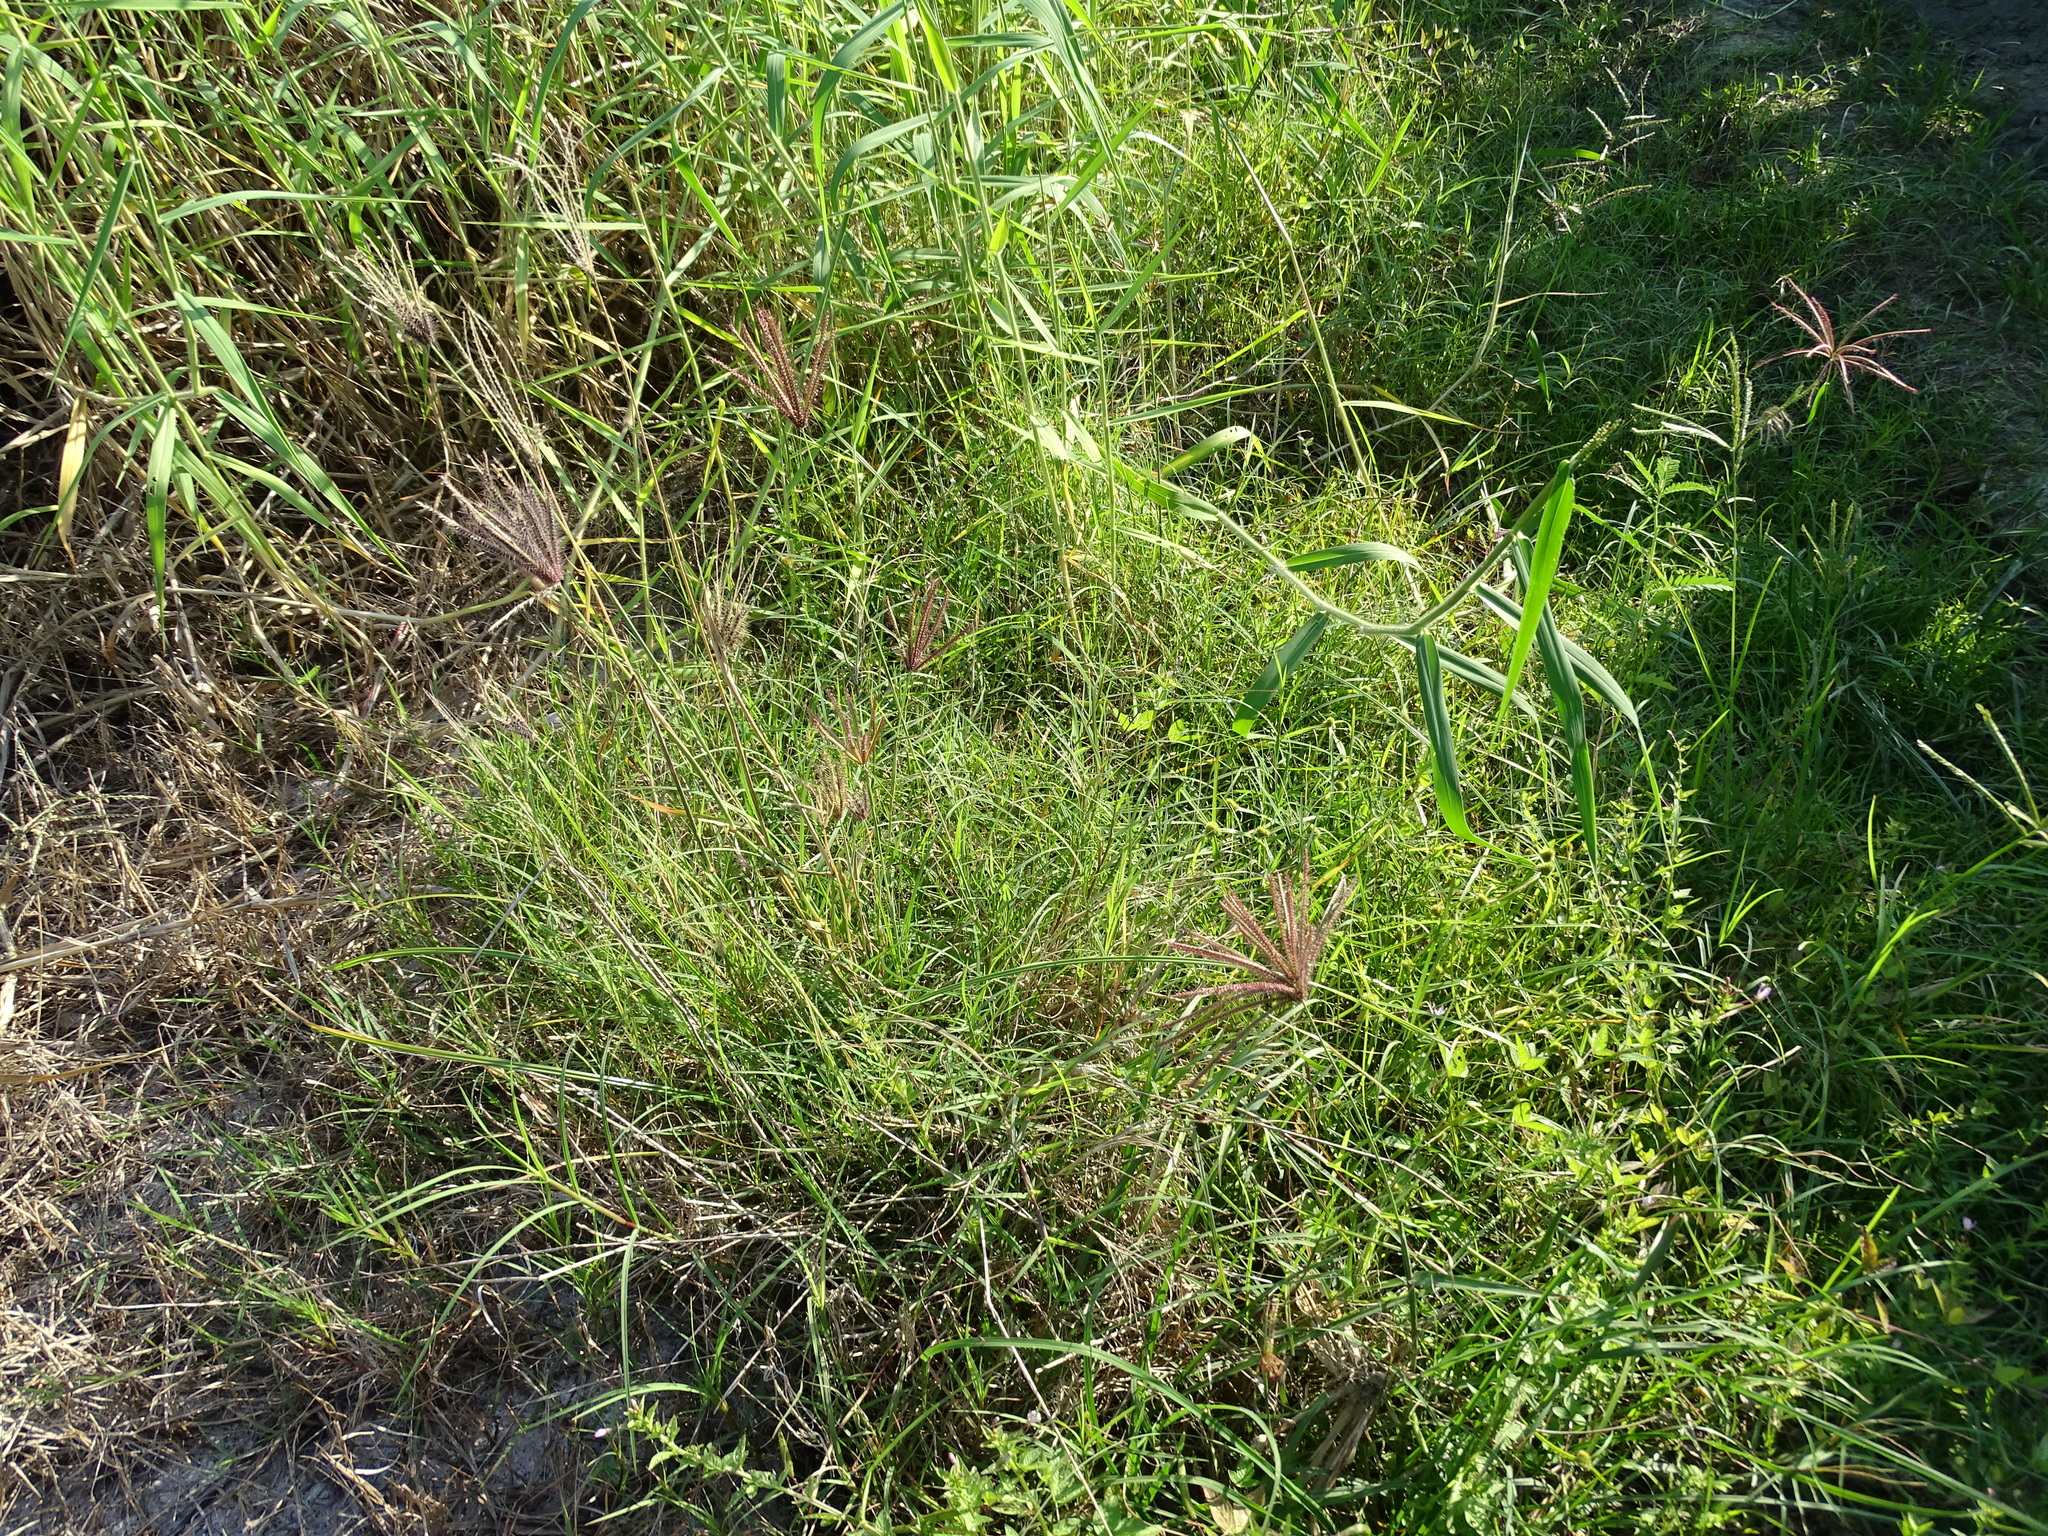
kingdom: Plantae
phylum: Tracheophyta
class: Liliopsida
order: Poales
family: Poaceae
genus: Chloris
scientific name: Chloris barbata
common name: Swollen fingergrass
